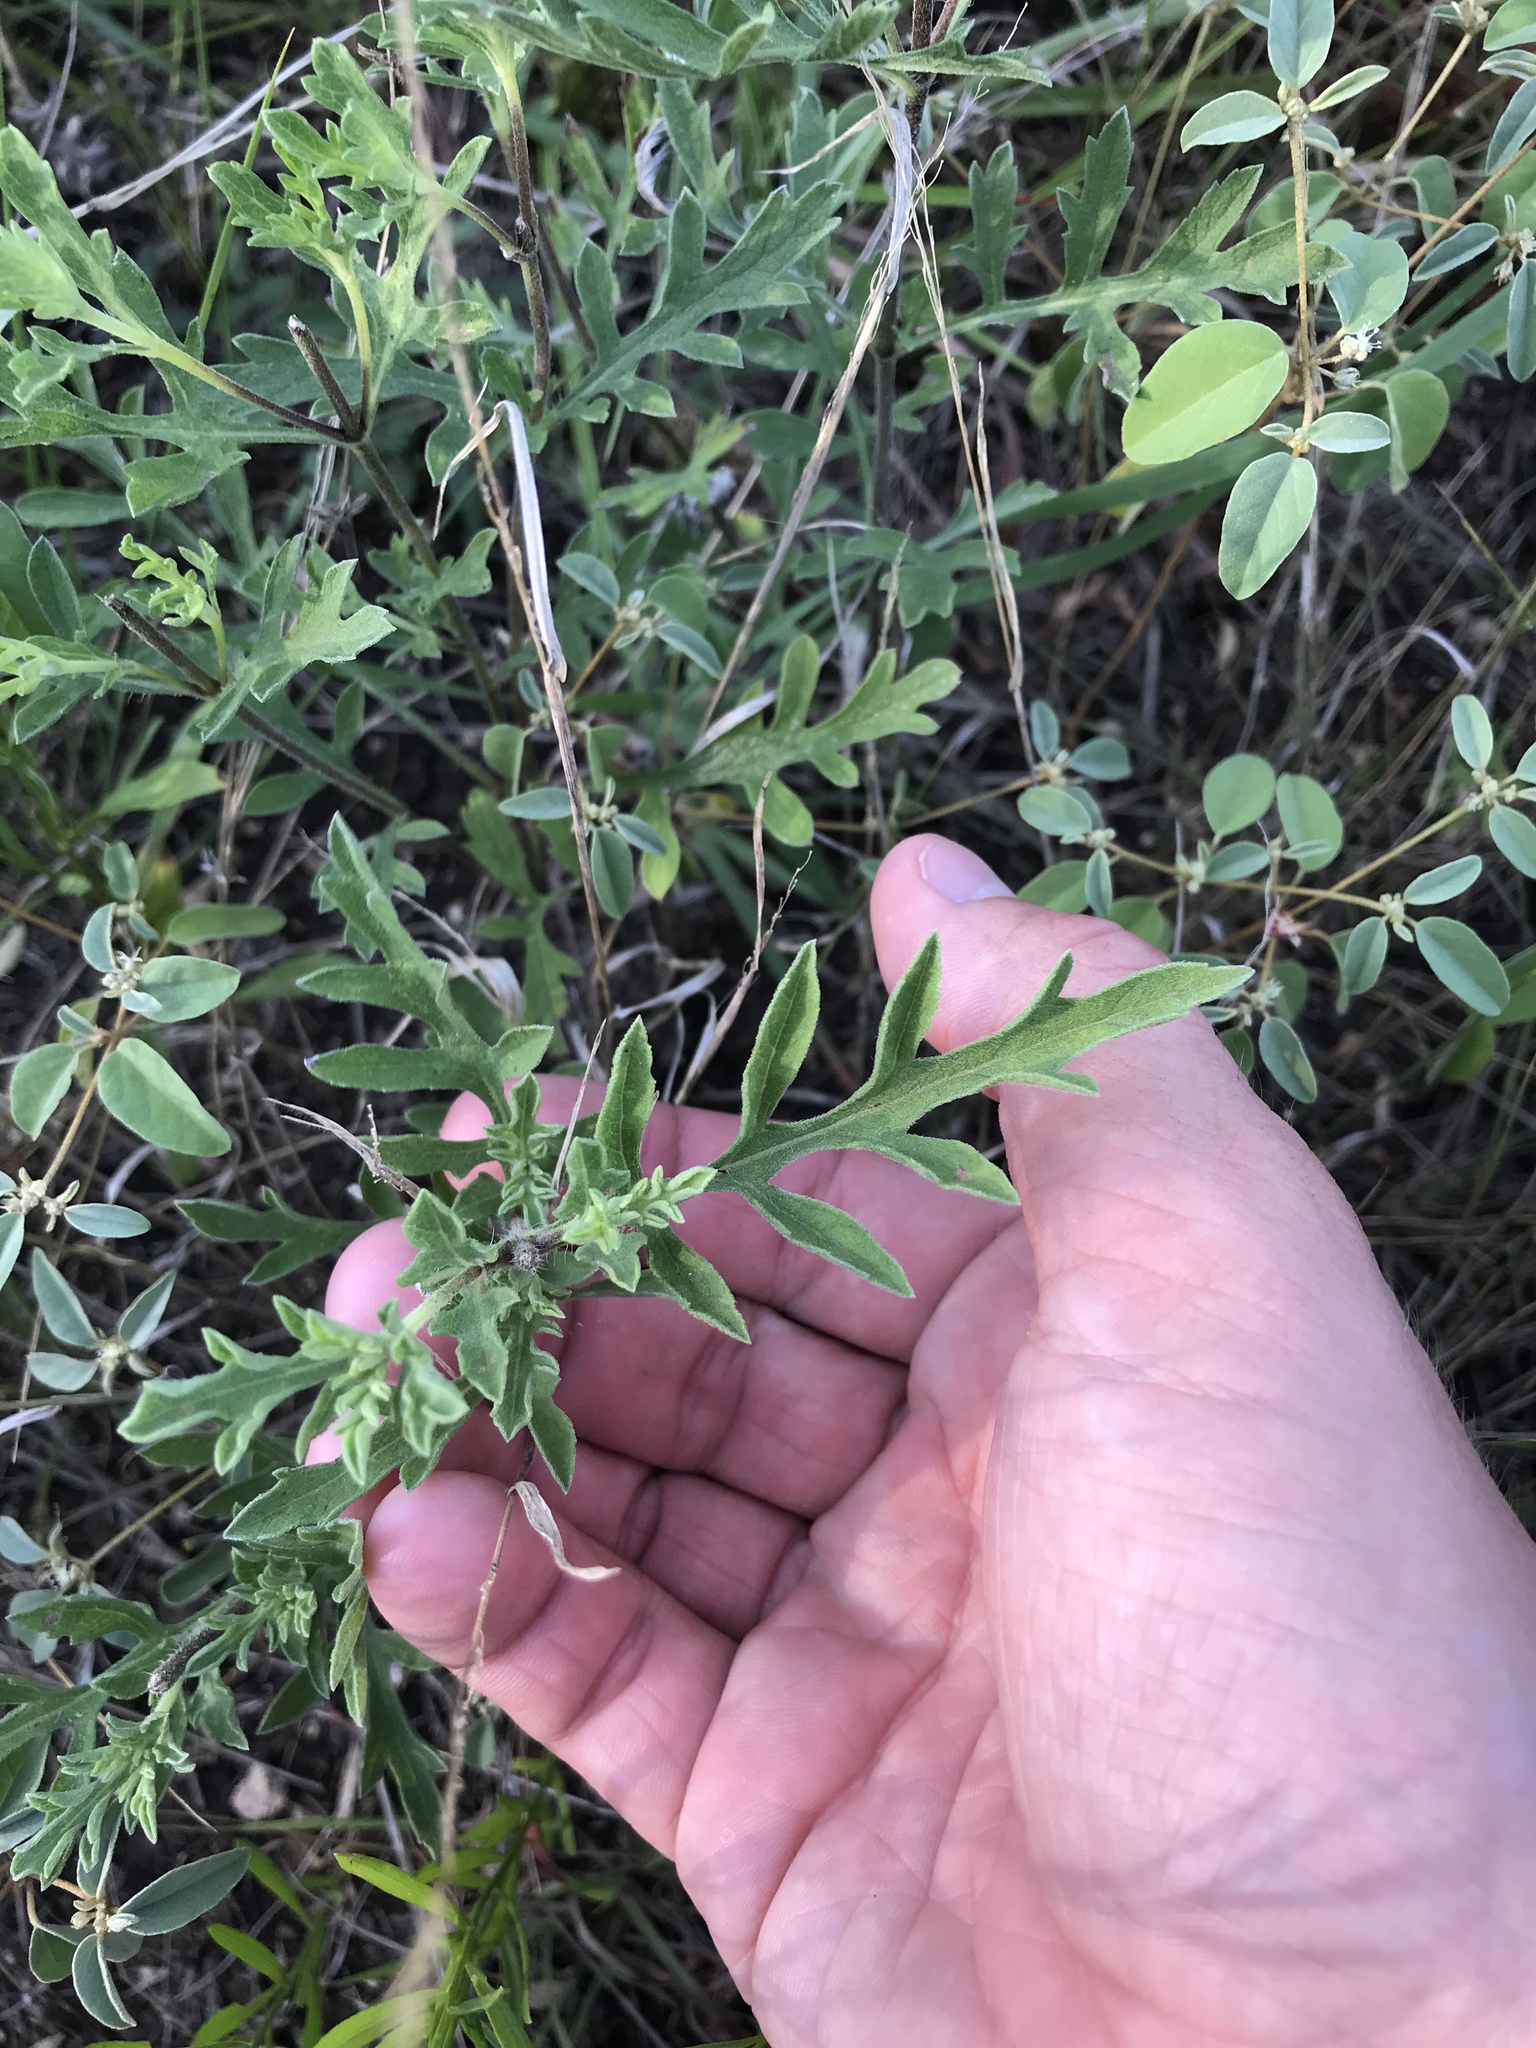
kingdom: Plantae
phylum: Tracheophyta
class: Magnoliopsida
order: Asterales
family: Asteraceae
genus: Ambrosia
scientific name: Ambrosia psilostachya
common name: Perennial ragweed
